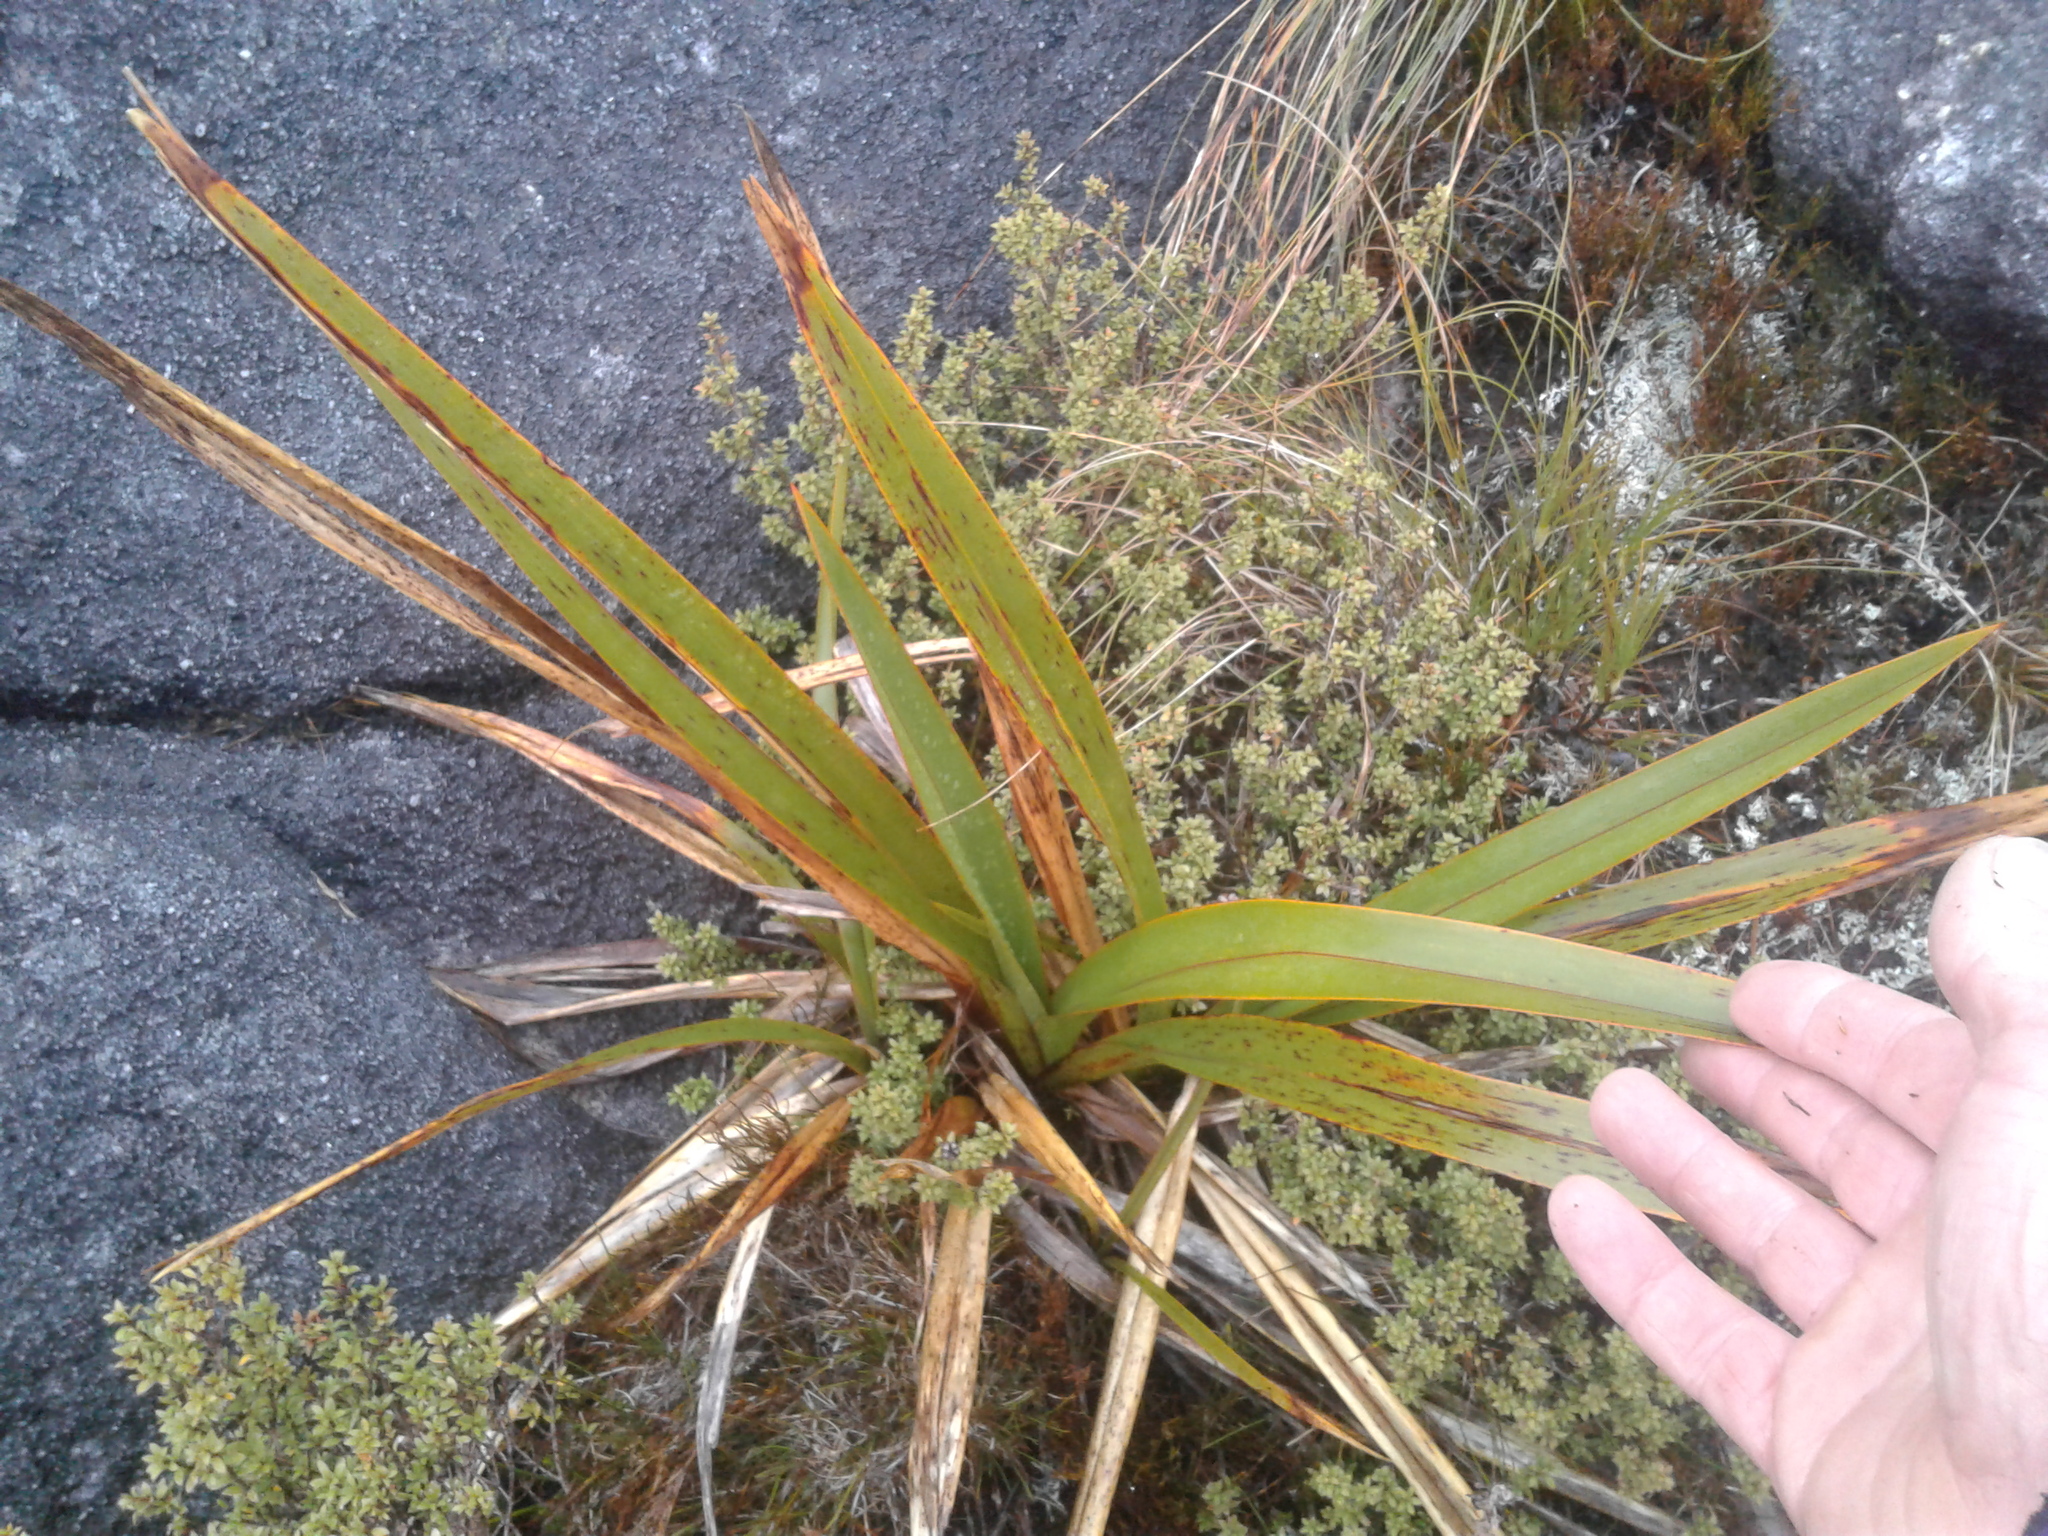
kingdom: Plantae
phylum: Tracheophyta
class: Liliopsida
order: Asparagales
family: Asphodelaceae
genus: Phormium
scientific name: Phormium colensoi
